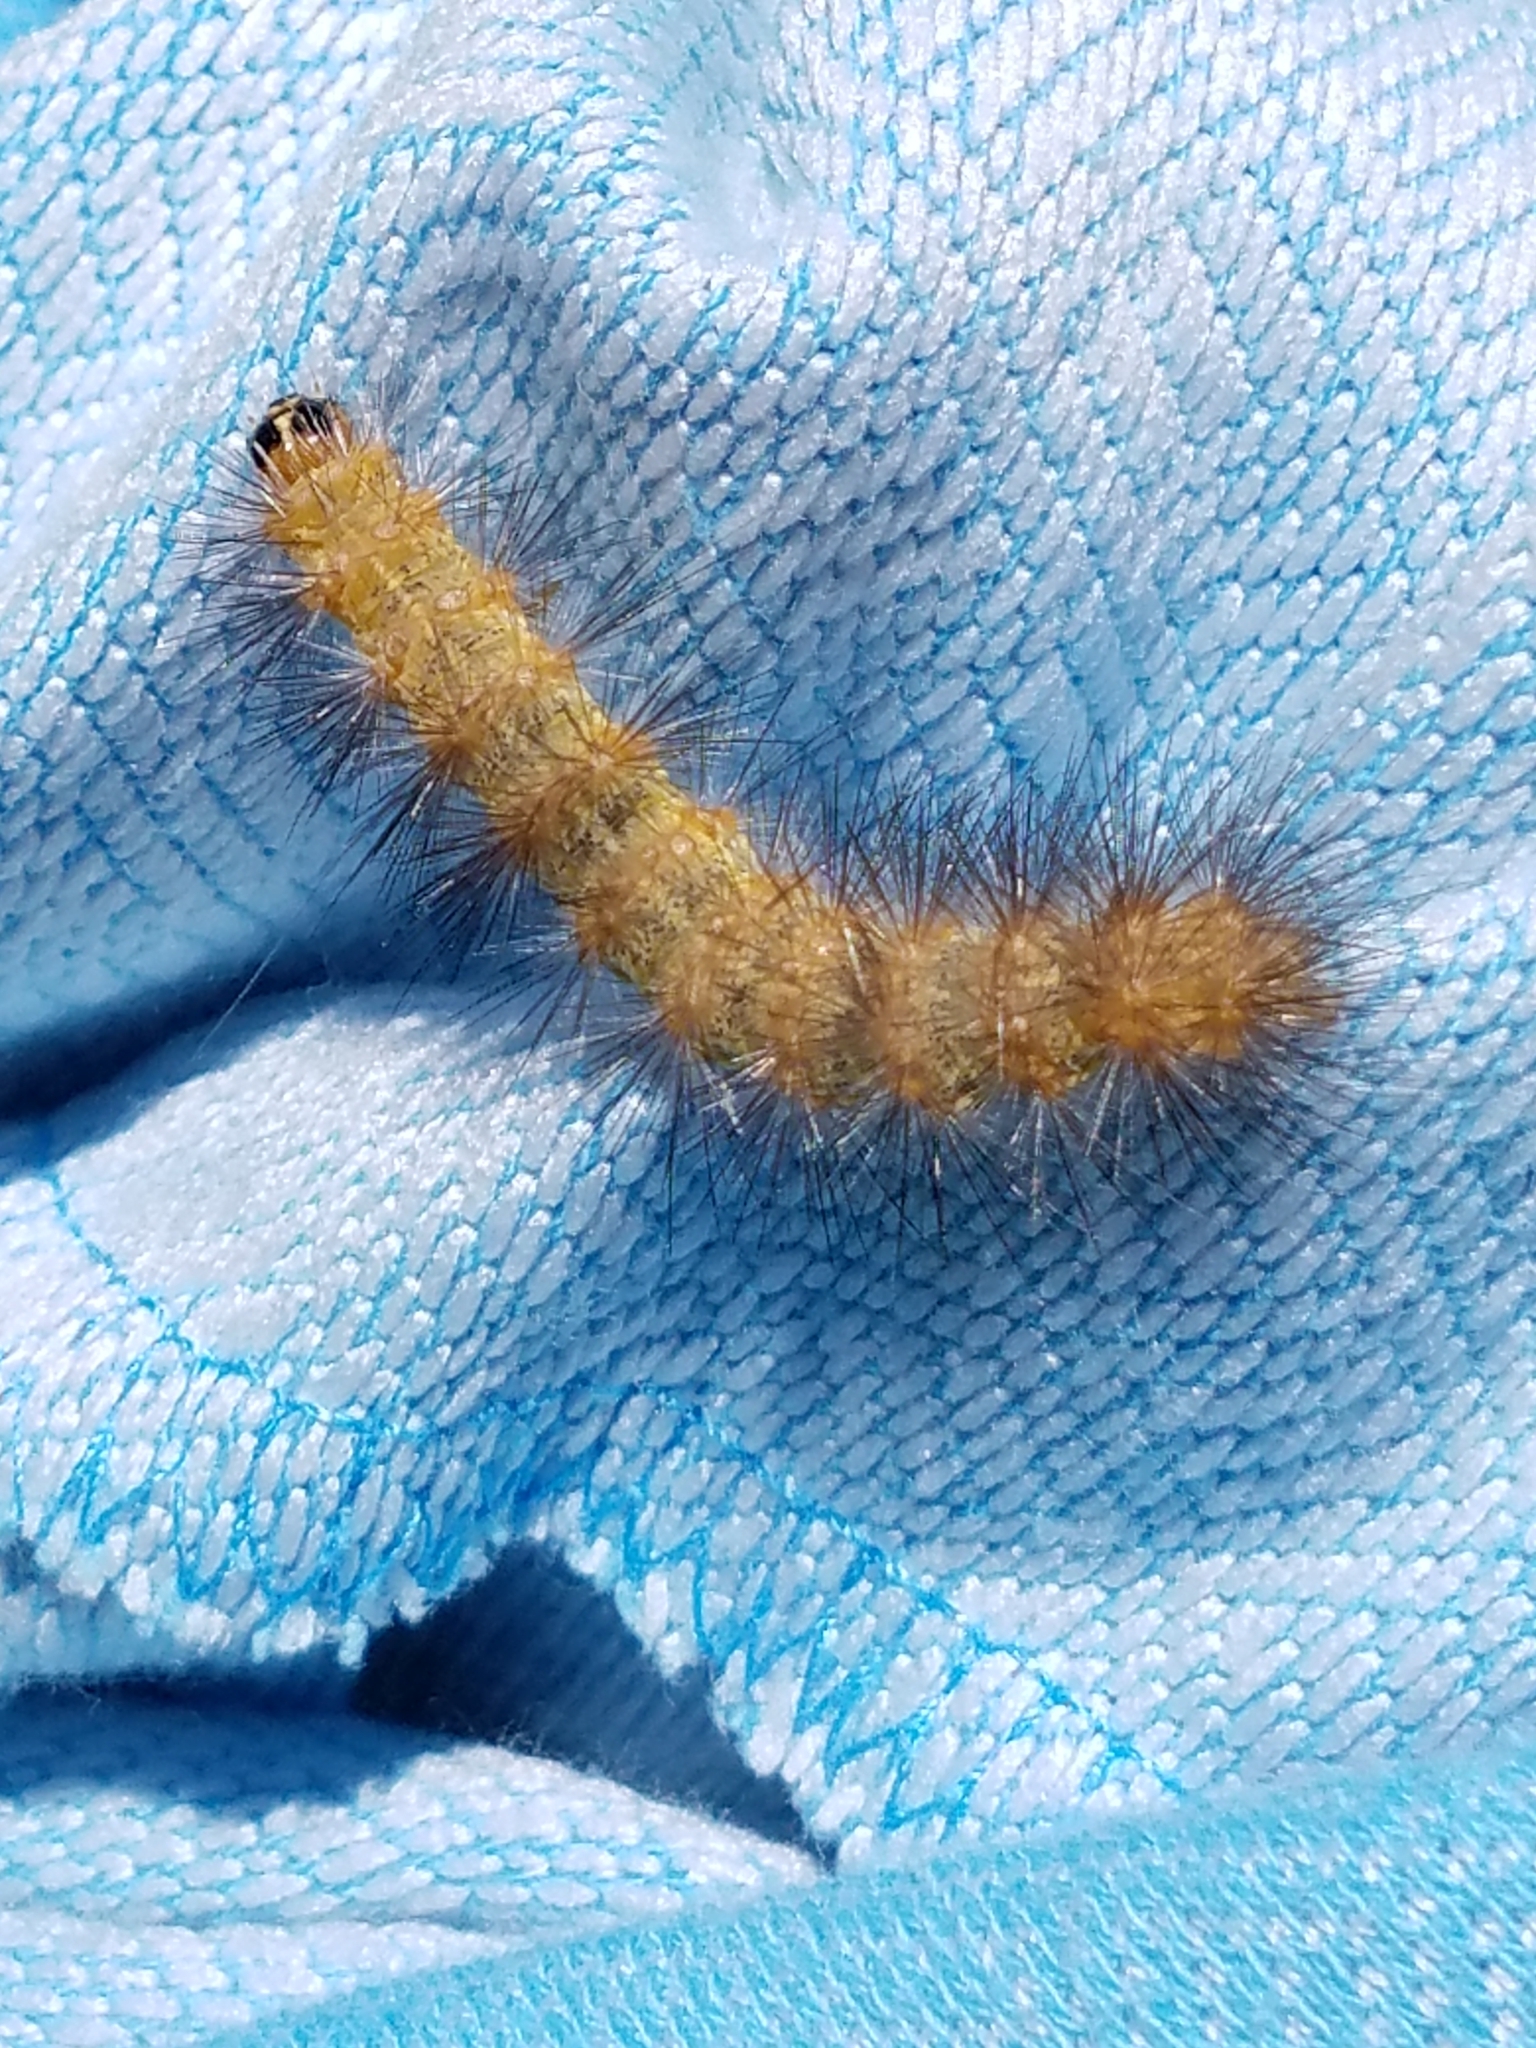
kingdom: Animalia
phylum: Arthropoda
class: Insecta
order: Lepidoptera
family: Erebidae
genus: Estigmene
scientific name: Estigmene acrea
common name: Salt marsh moth
